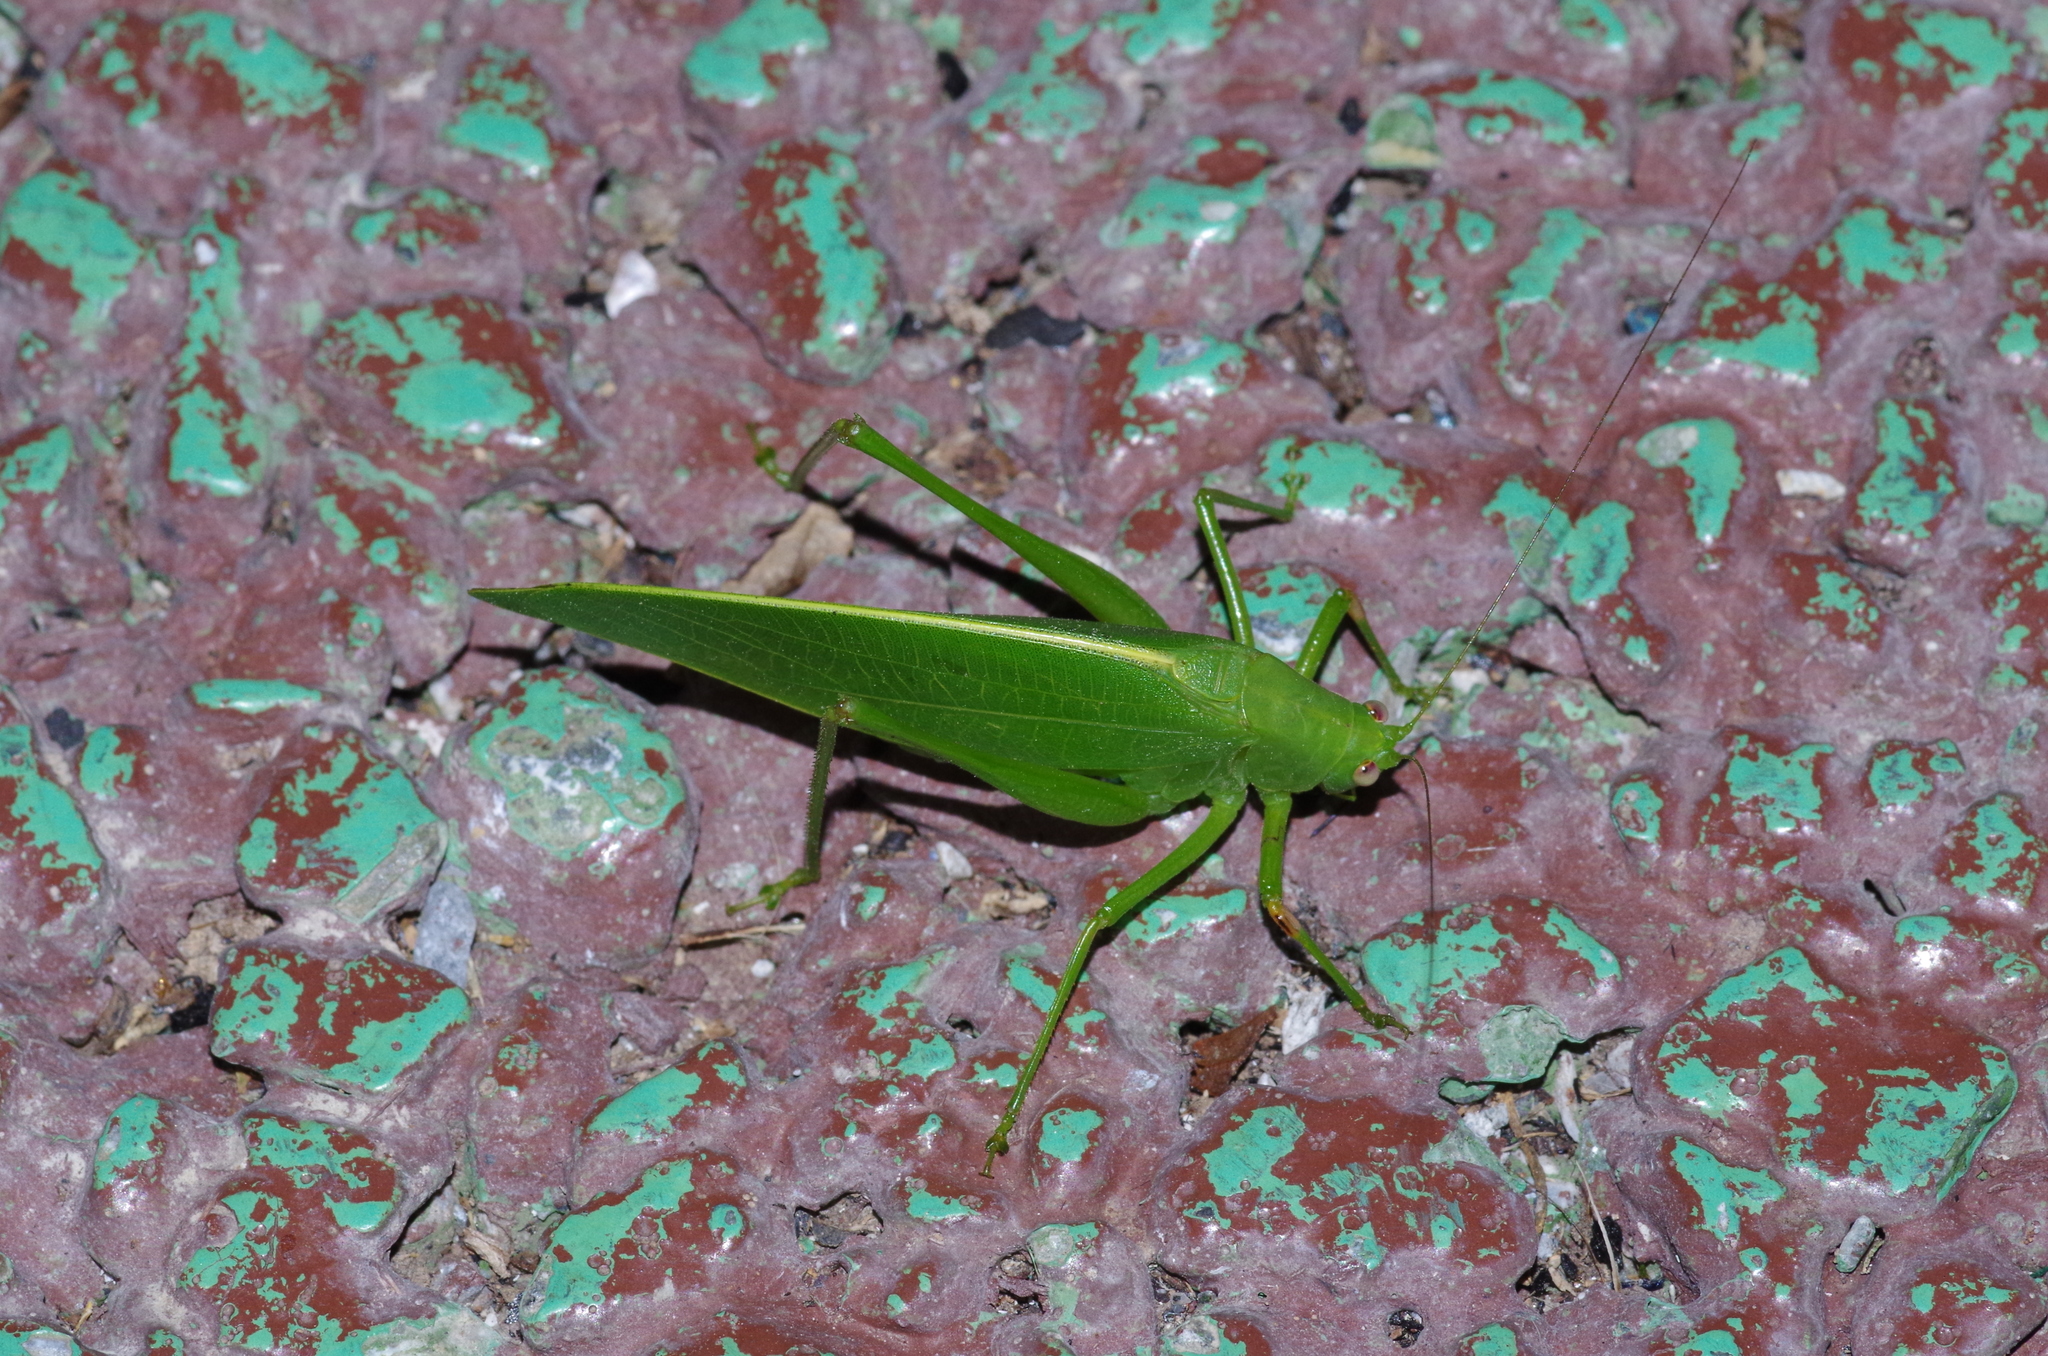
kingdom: Animalia
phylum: Arthropoda
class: Insecta
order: Orthoptera
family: Tettigoniidae
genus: Phaulula
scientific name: Phaulula daitoensis
